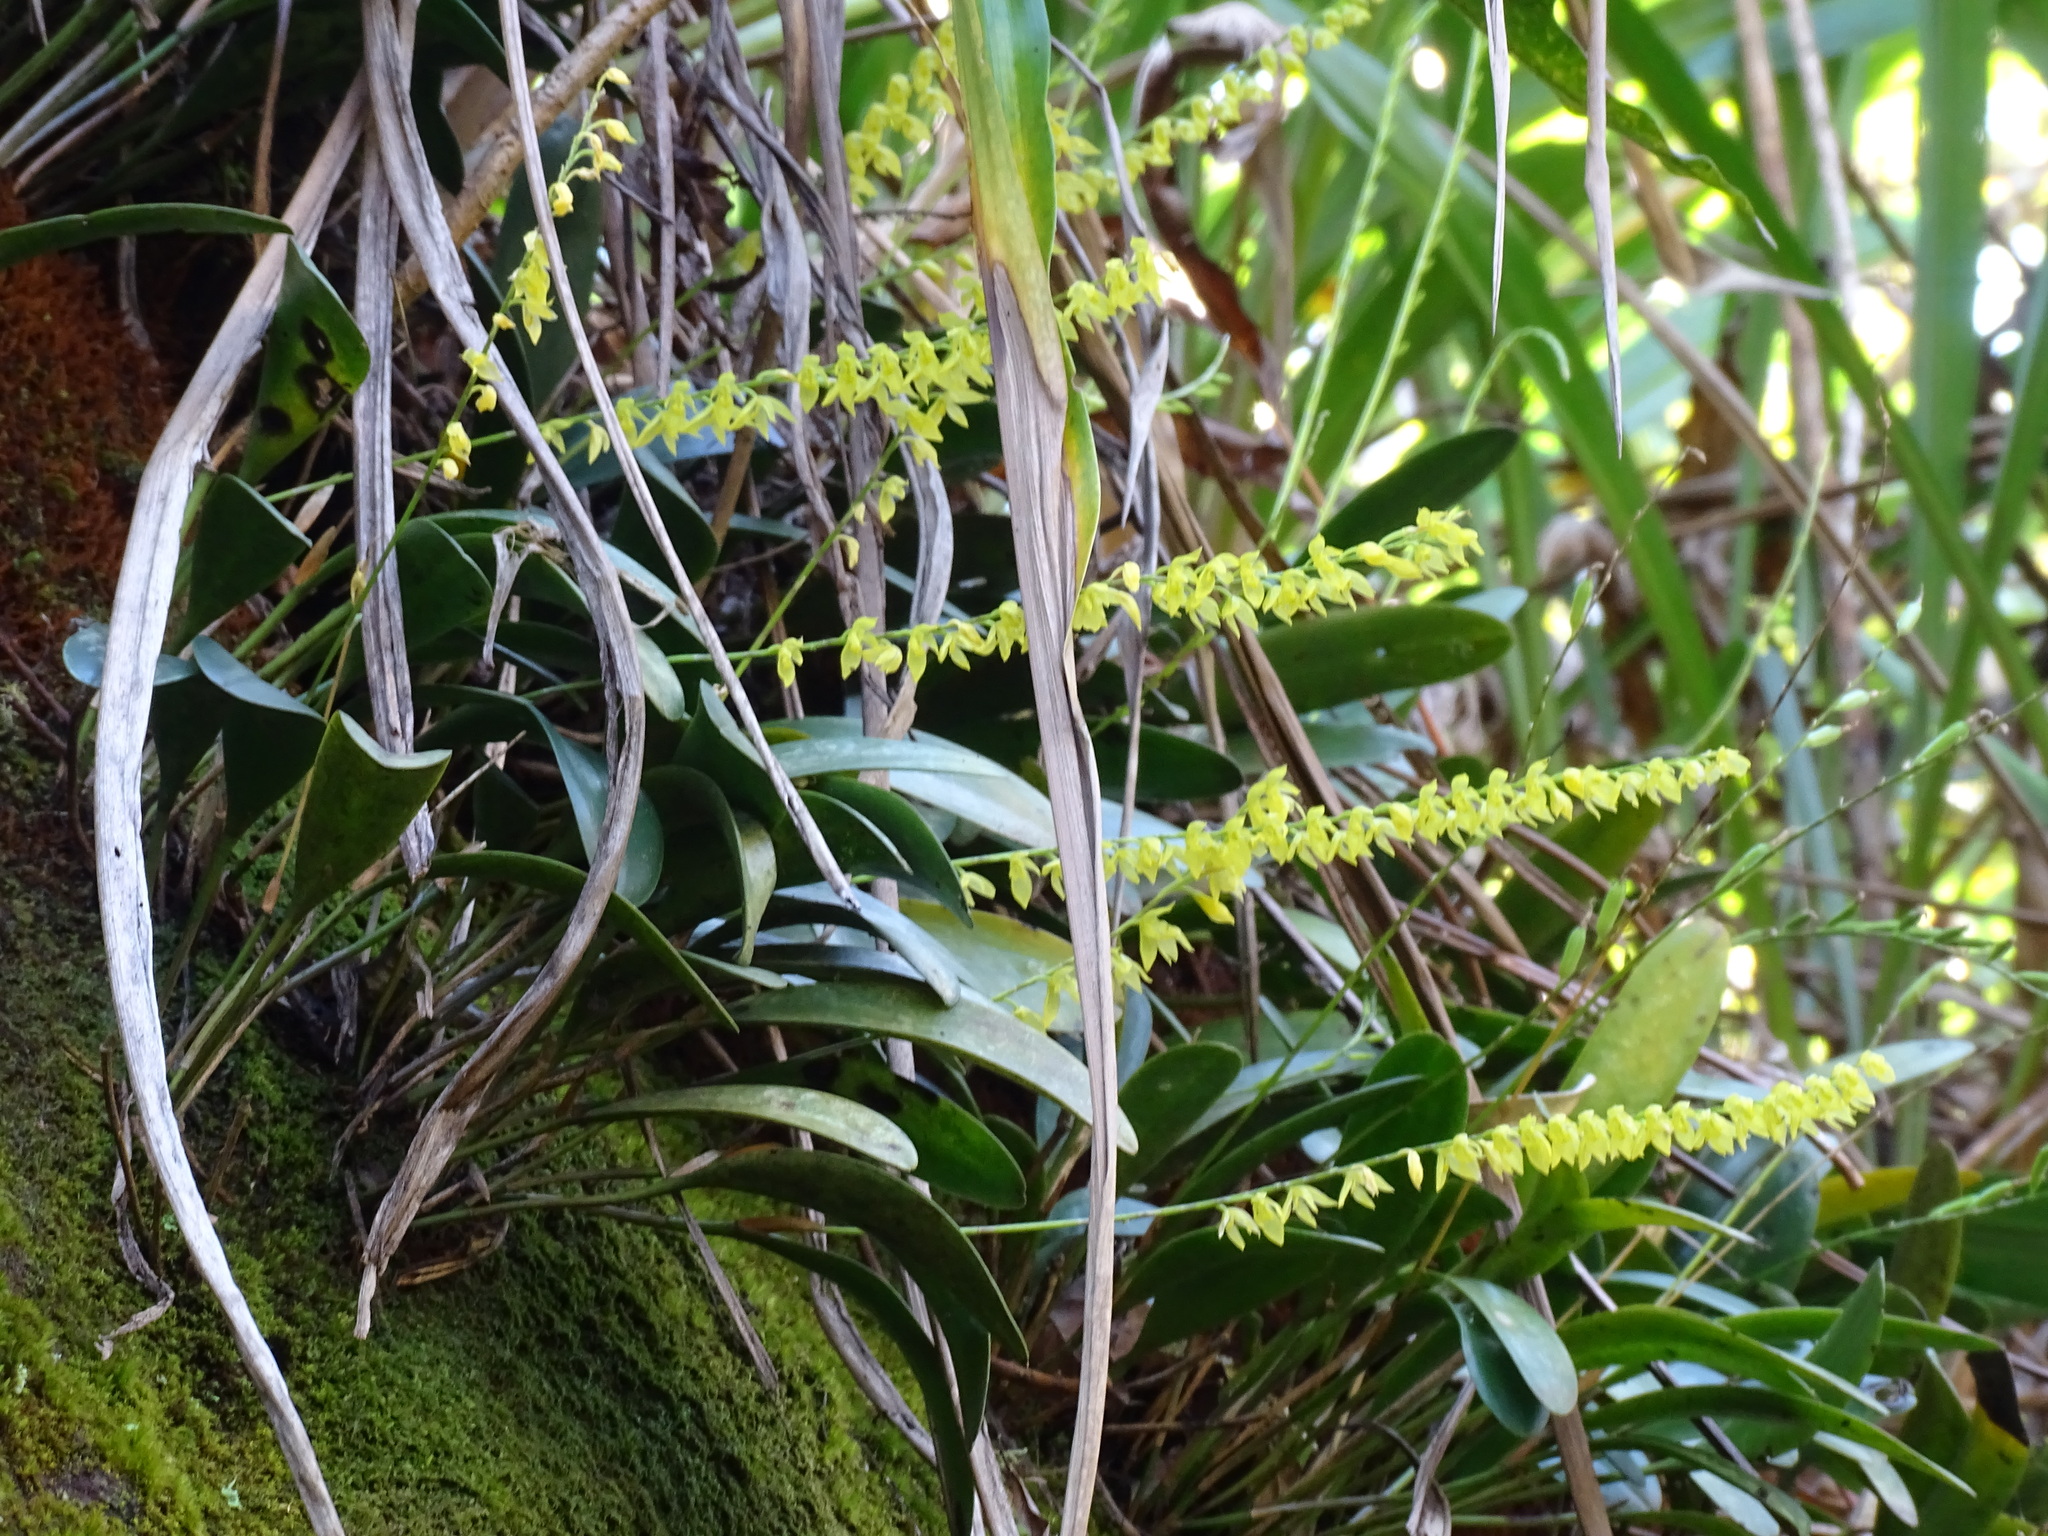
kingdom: Plantae
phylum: Tracheophyta
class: Liliopsida
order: Asparagales
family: Orchidaceae
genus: Pleurothallis
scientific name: Pleurothallis quadrifida
